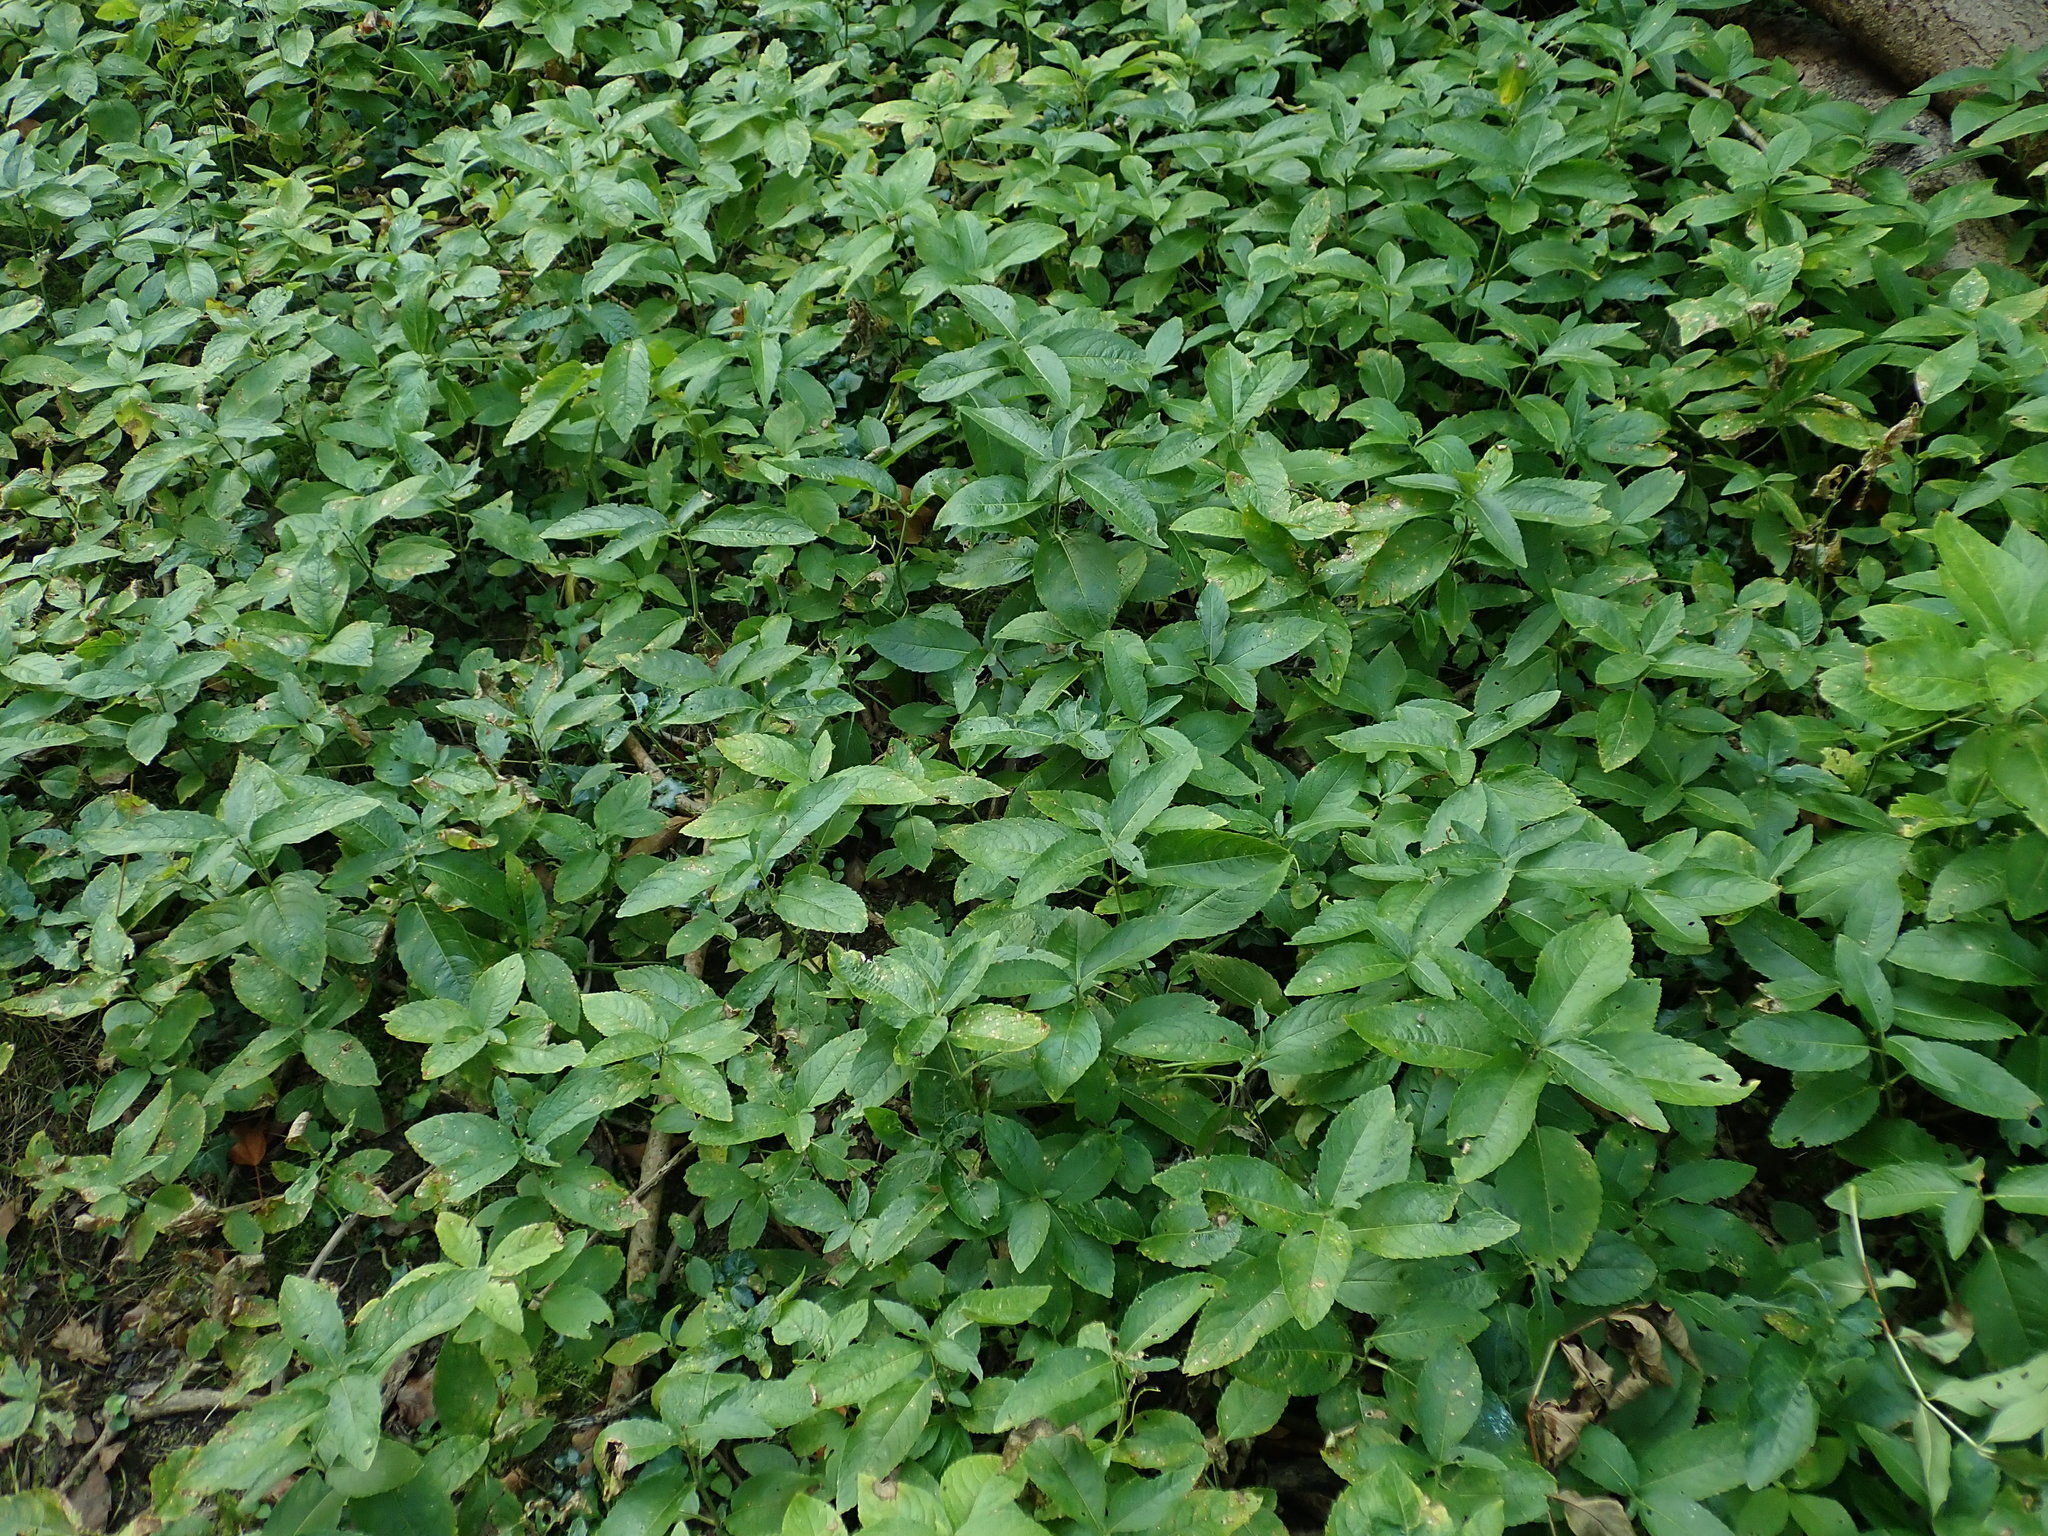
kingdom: Plantae
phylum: Tracheophyta
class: Magnoliopsida
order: Malpighiales
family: Euphorbiaceae
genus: Mercurialis
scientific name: Mercurialis perennis
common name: Dog mercury
